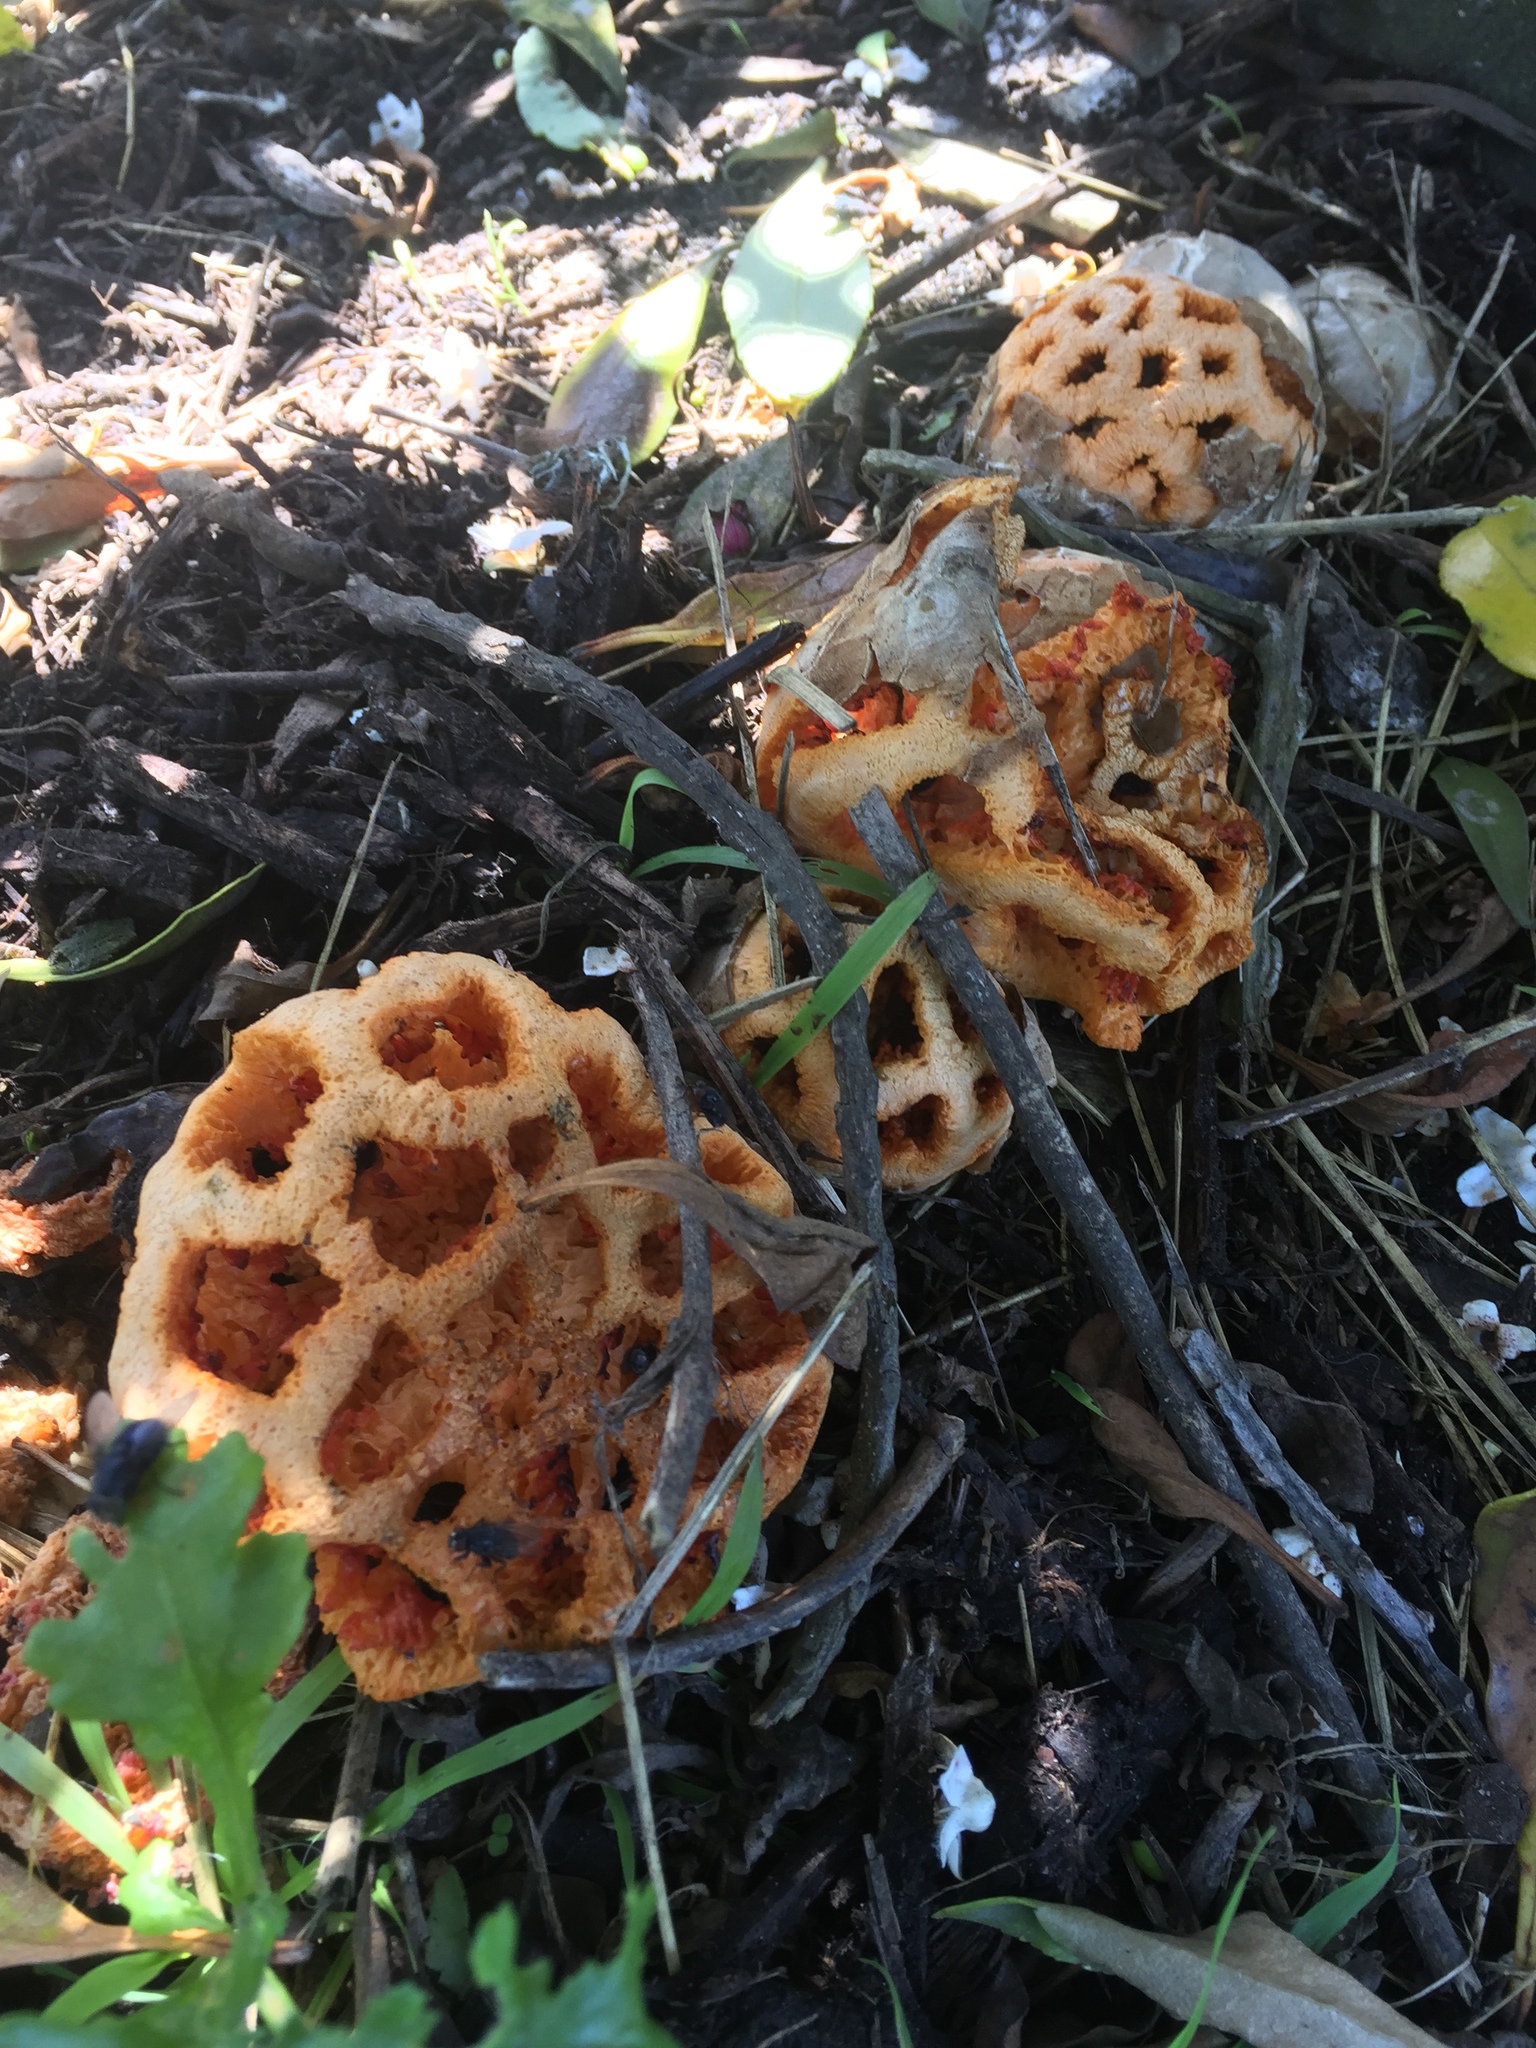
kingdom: Fungi
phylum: Basidiomycota
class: Agaricomycetes
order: Phallales
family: Phallaceae
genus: Clathrus
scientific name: Clathrus ruber
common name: Red cage
